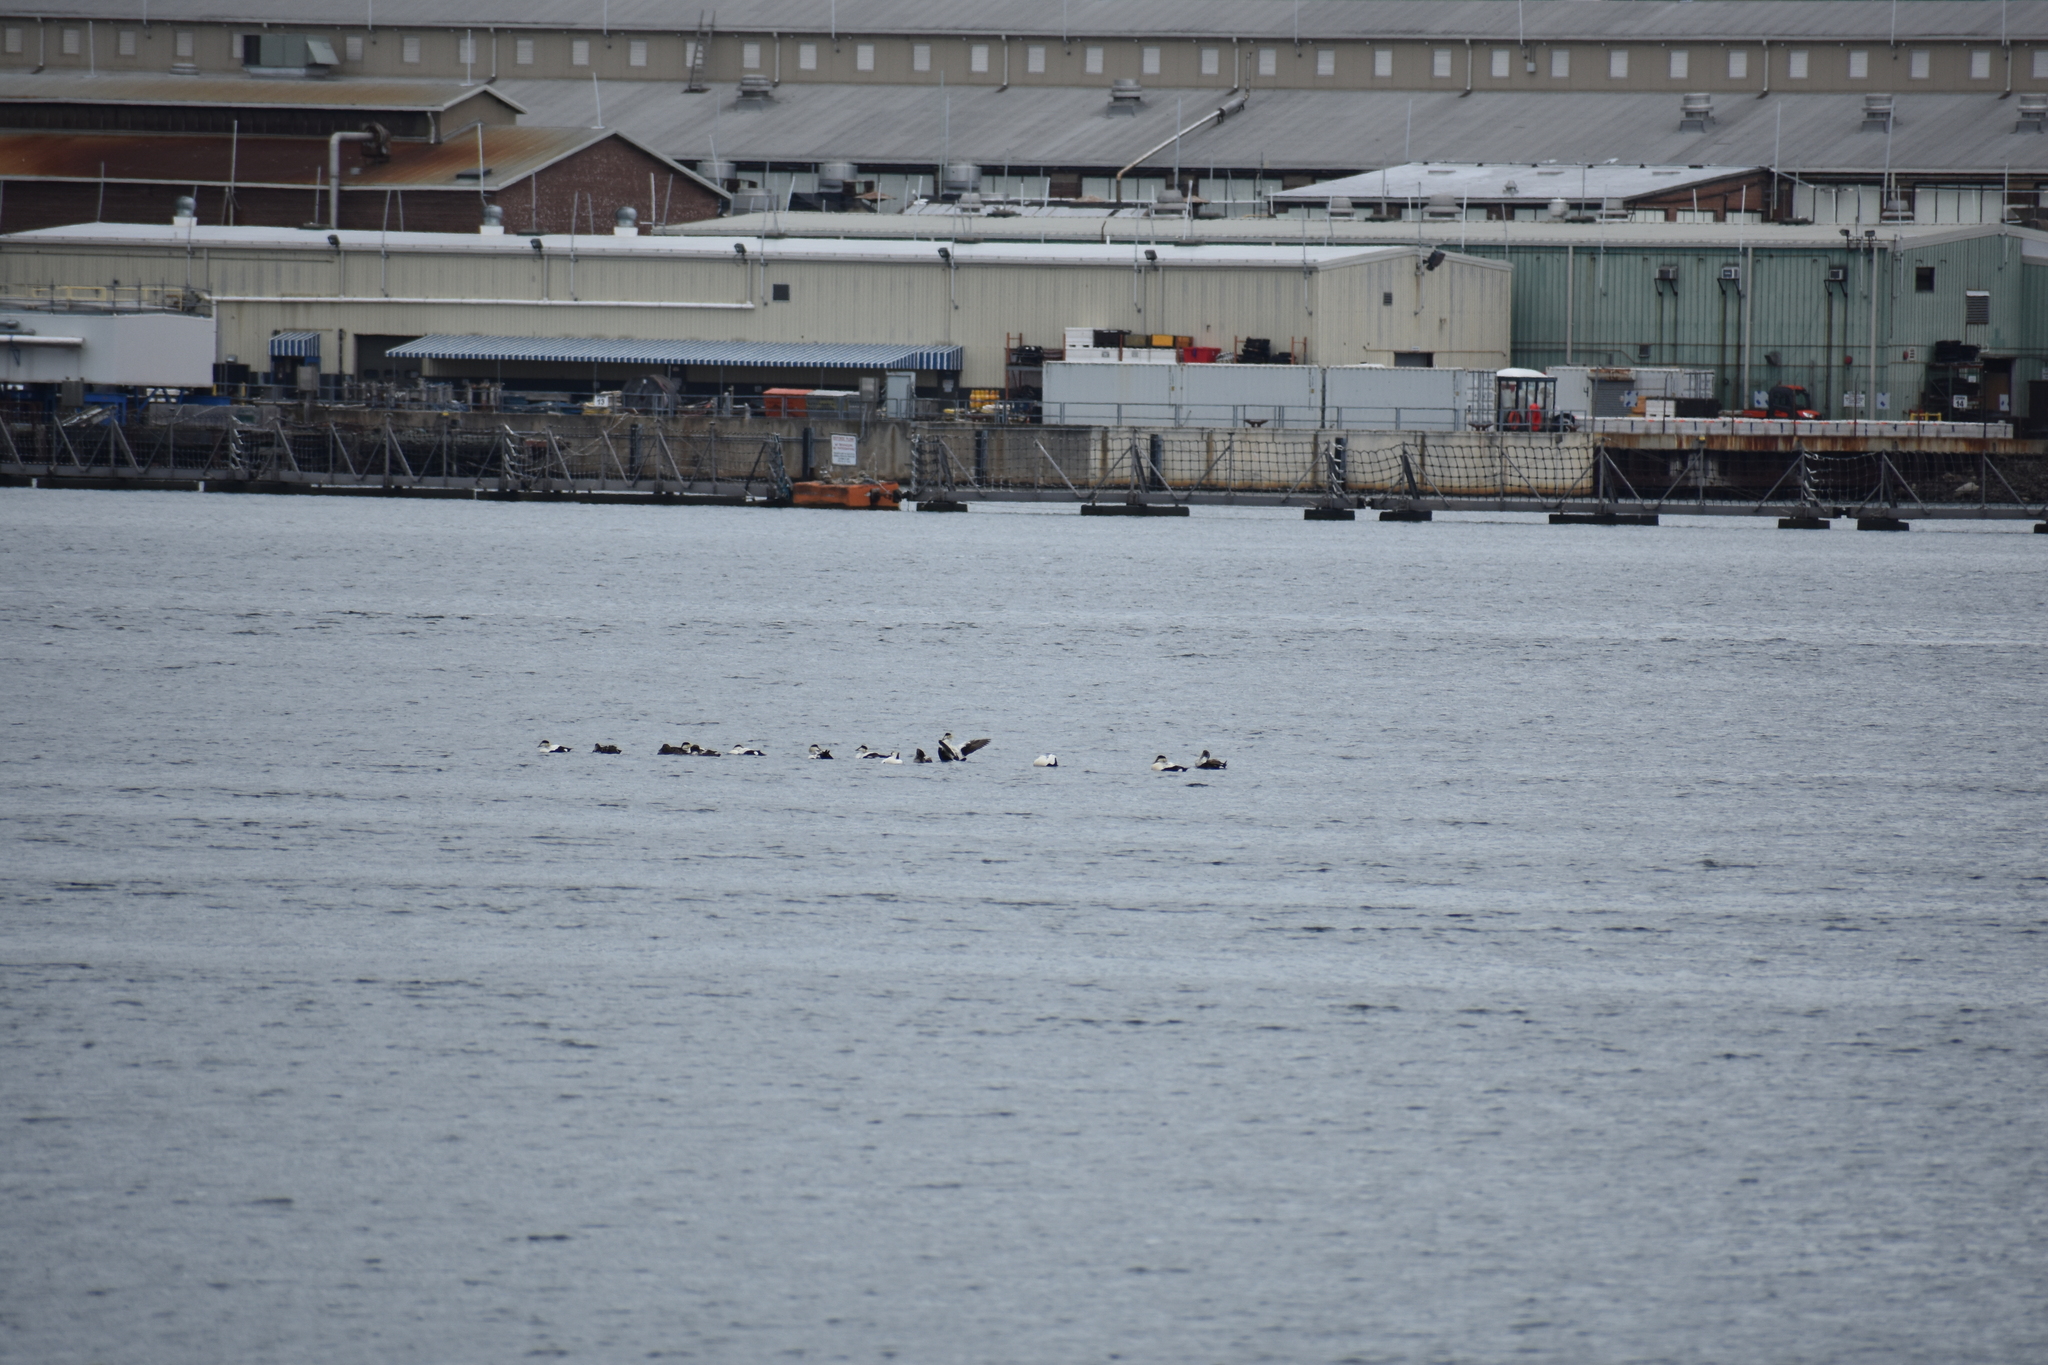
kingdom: Animalia
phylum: Chordata
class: Aves
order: Anseriformes
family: Anatidae
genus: Somateria
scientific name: Somateria mollissima
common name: Common eider
